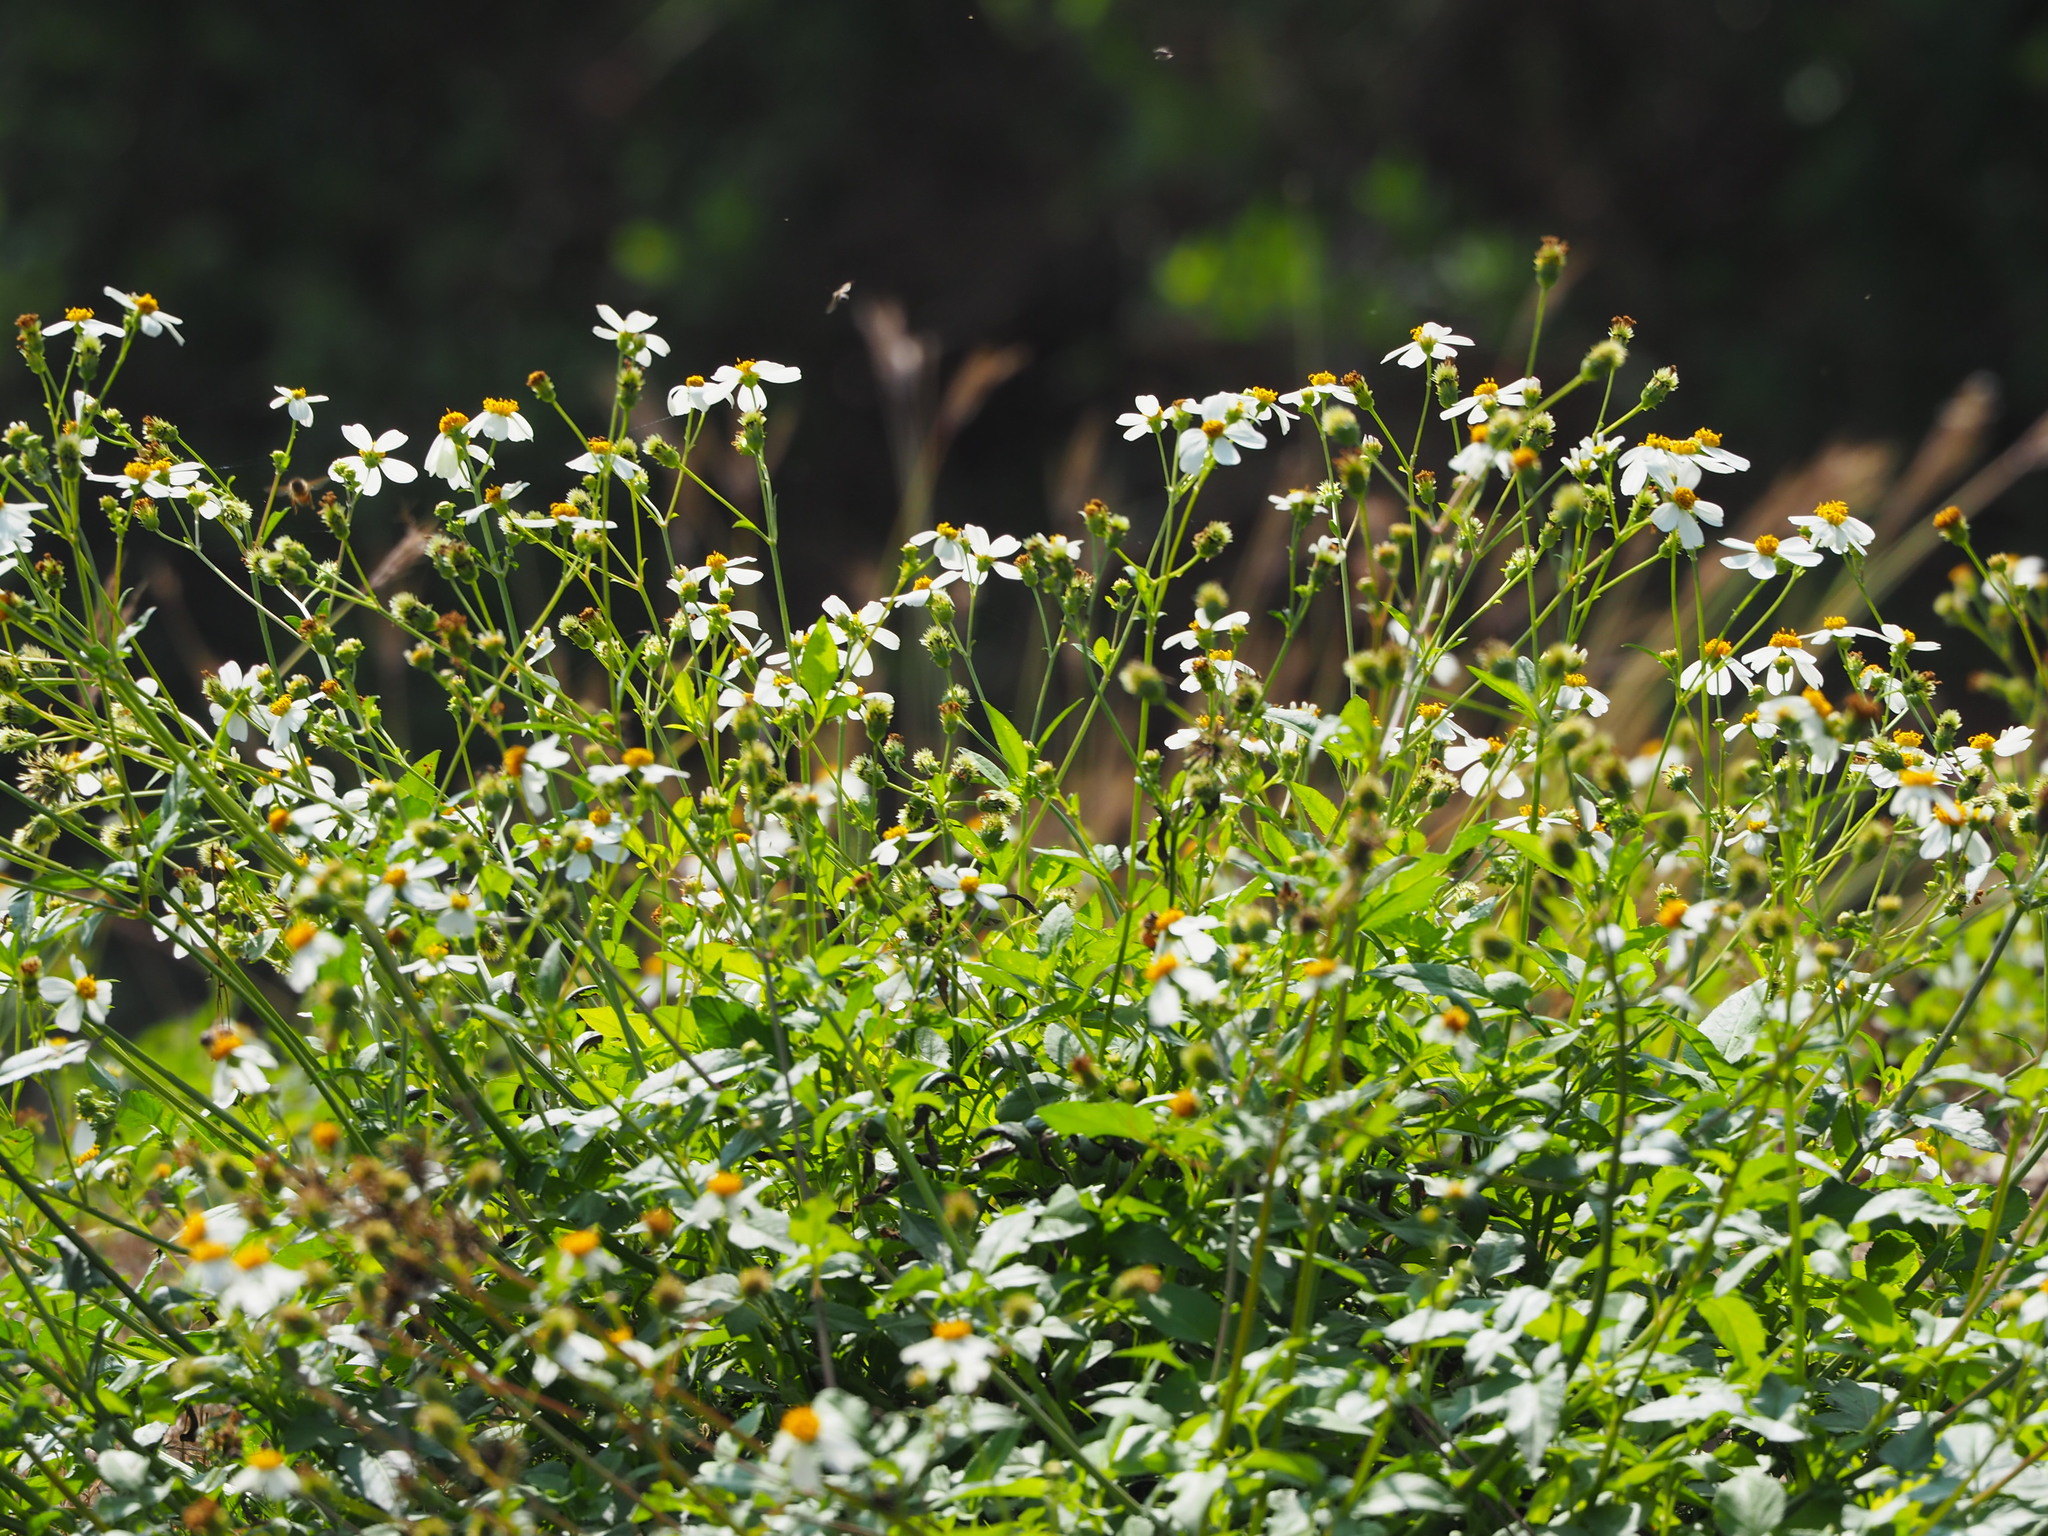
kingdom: Plantae
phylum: Tracheophyta
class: Magnoliopsida
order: Asterales
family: Asteraceae
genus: Bidens
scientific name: Bidens alba
